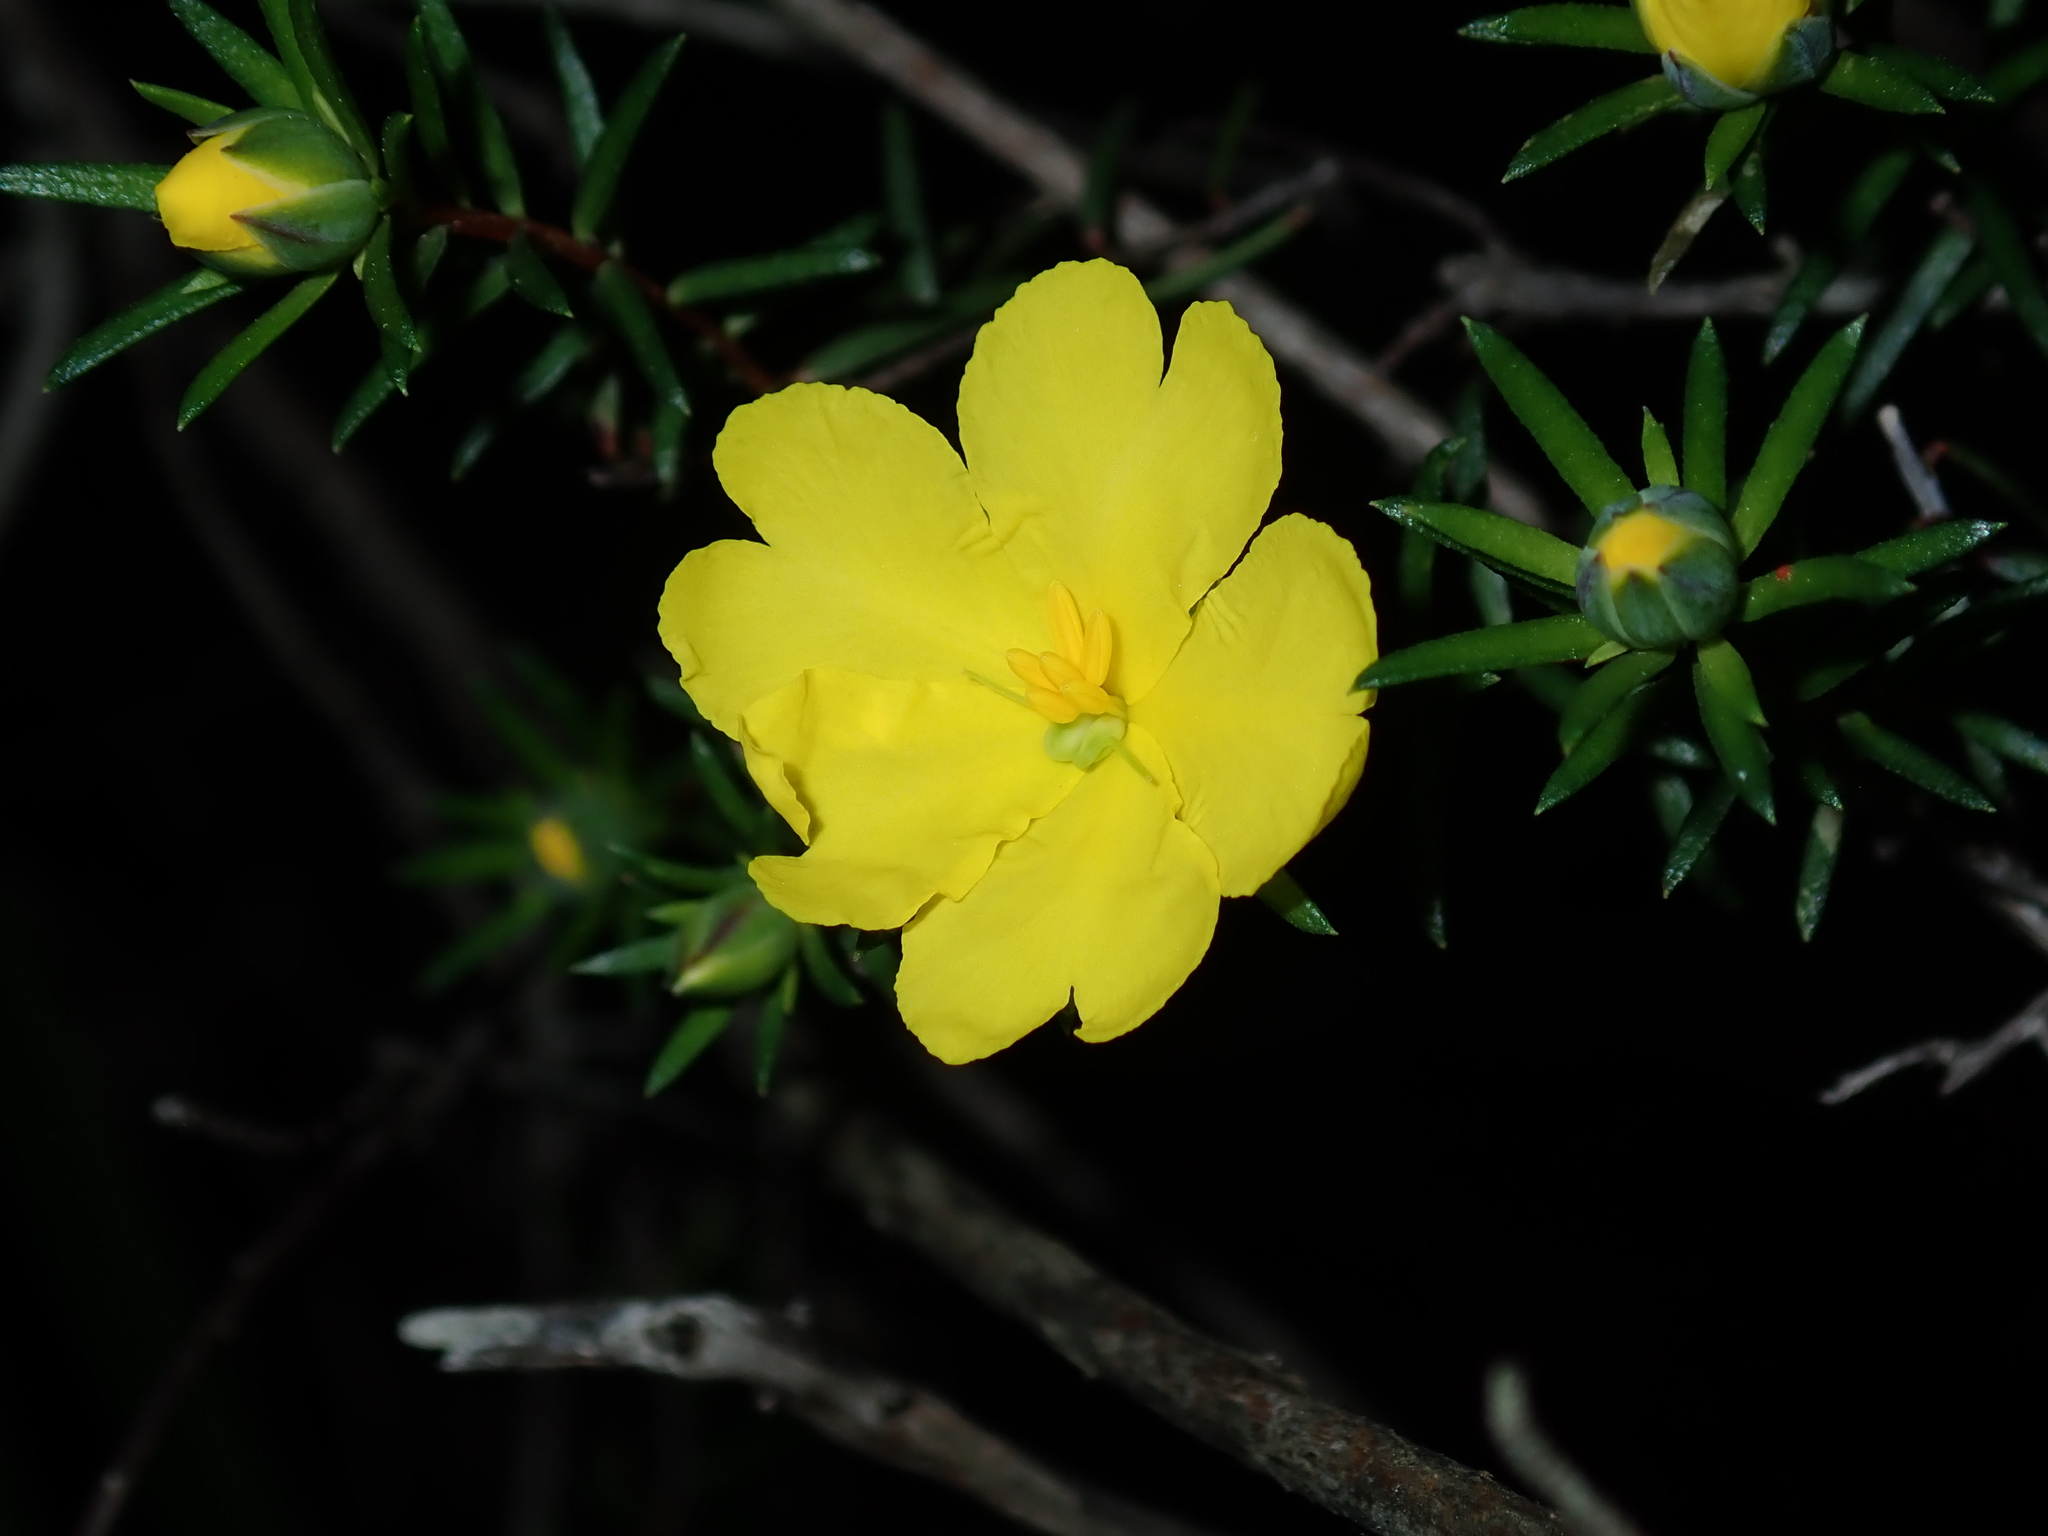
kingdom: Plantae
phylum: Tracheophyta
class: Magnoliopsida
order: Dilleniales
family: Dilleniaceae
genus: Hibbertia
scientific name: Hibbertia cistiflora
